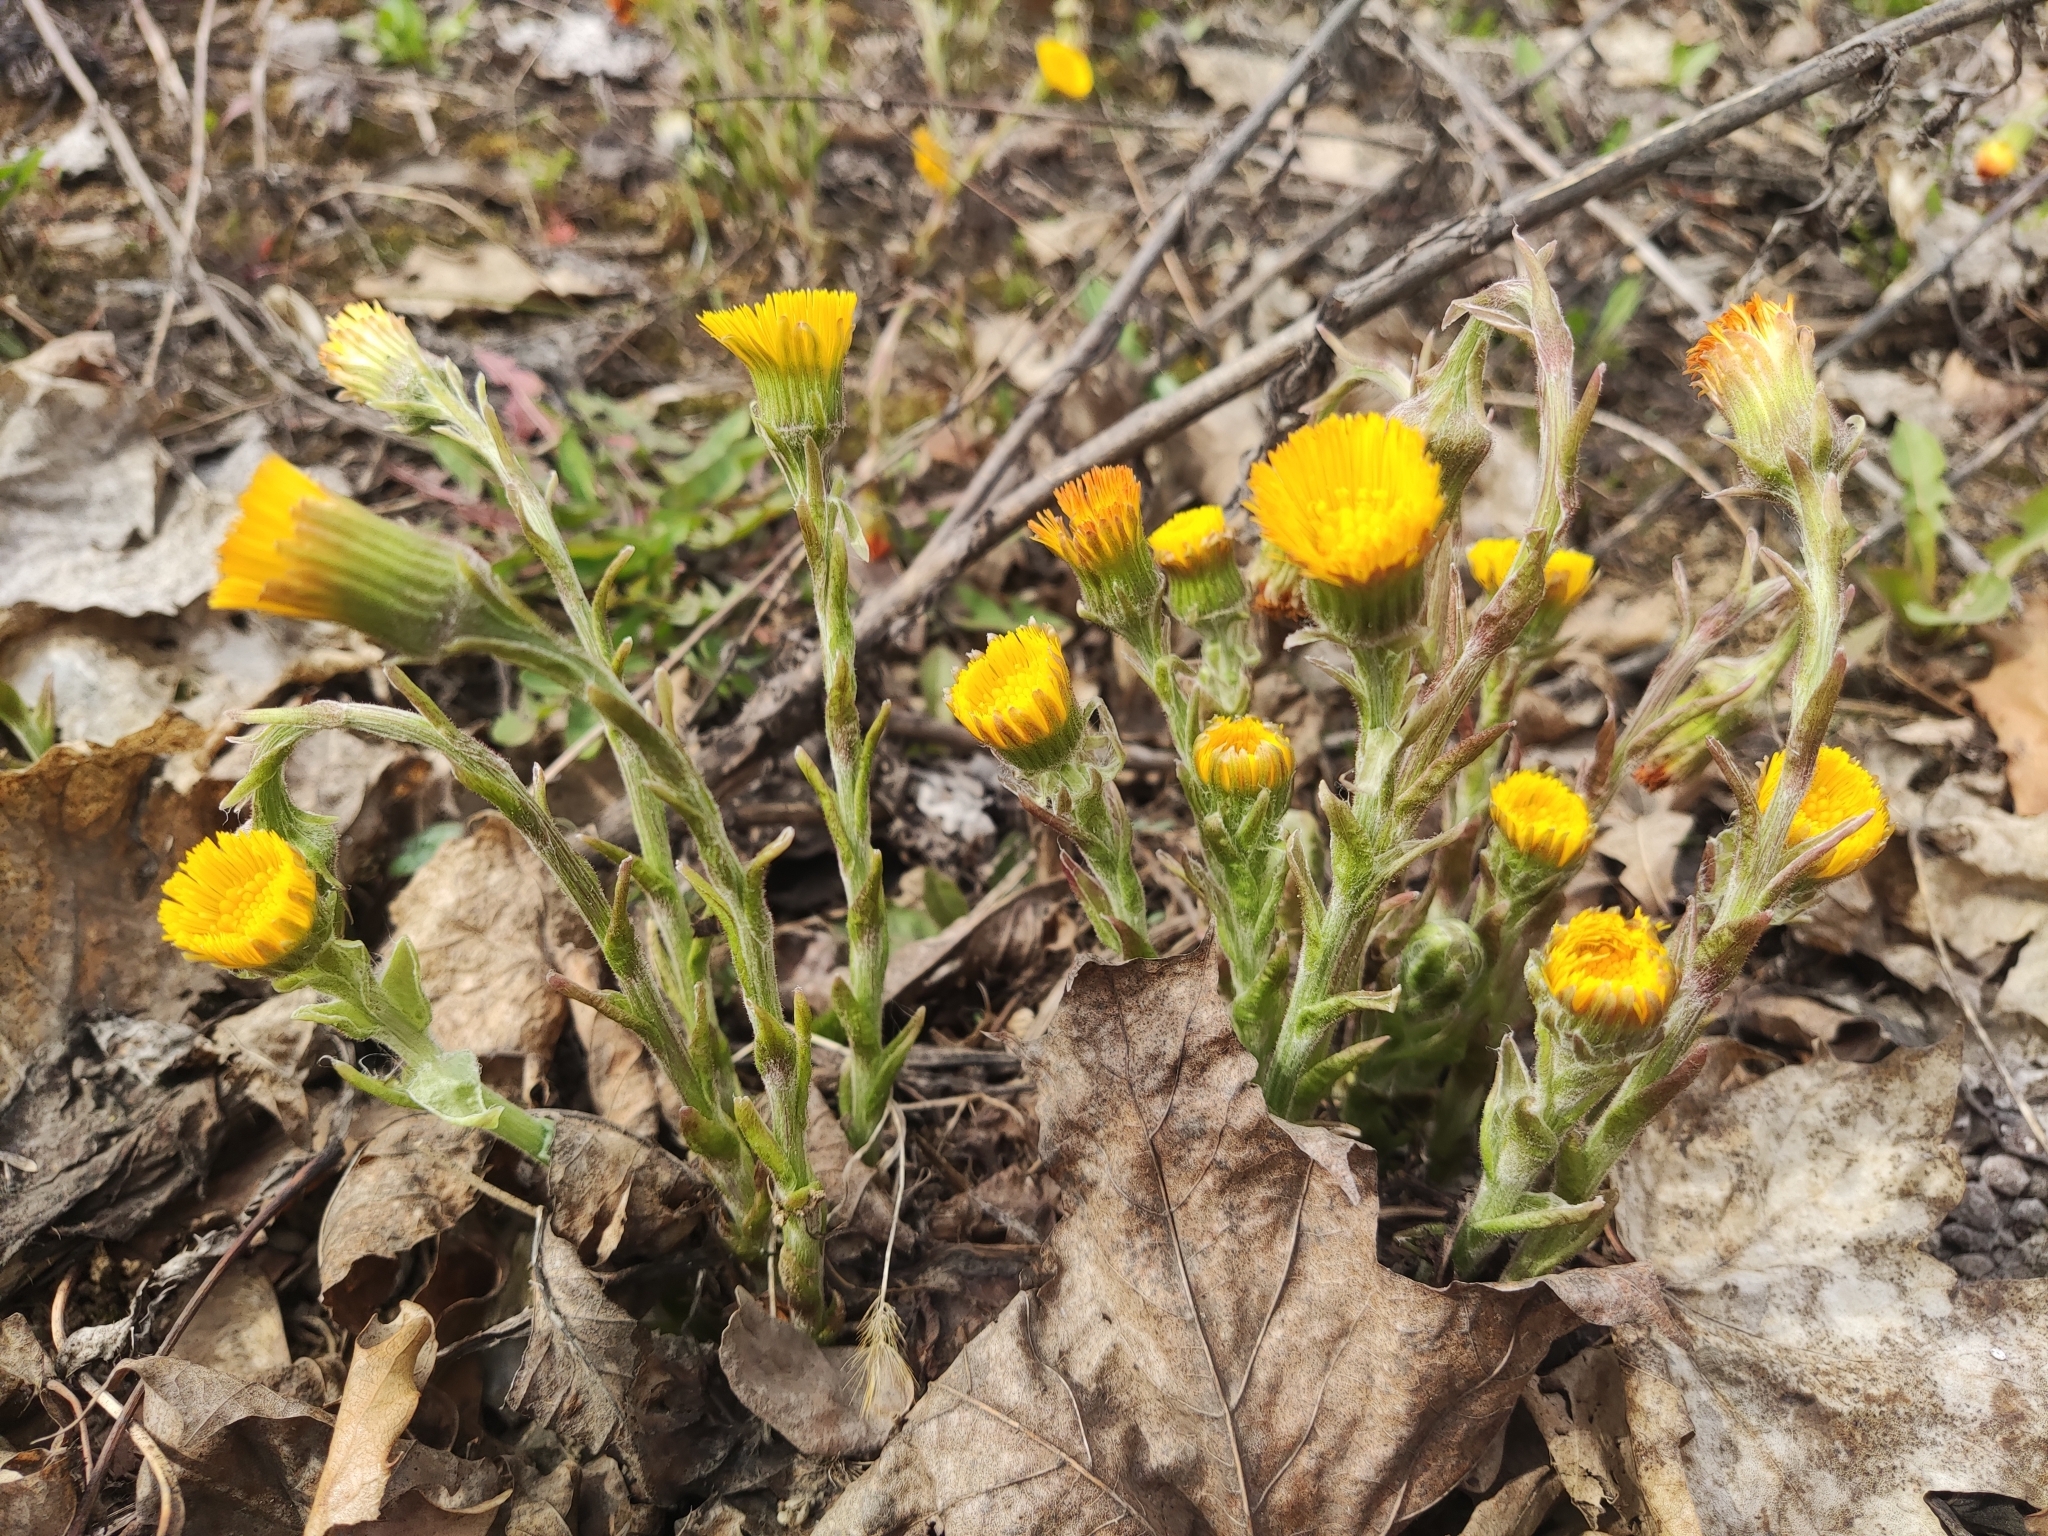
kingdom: Plantae
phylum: Tracheophyta
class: Magnoliopsida
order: Asterales
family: Asteraceae
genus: Tussilago
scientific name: Tussilago farfara
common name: Coltsfoot
